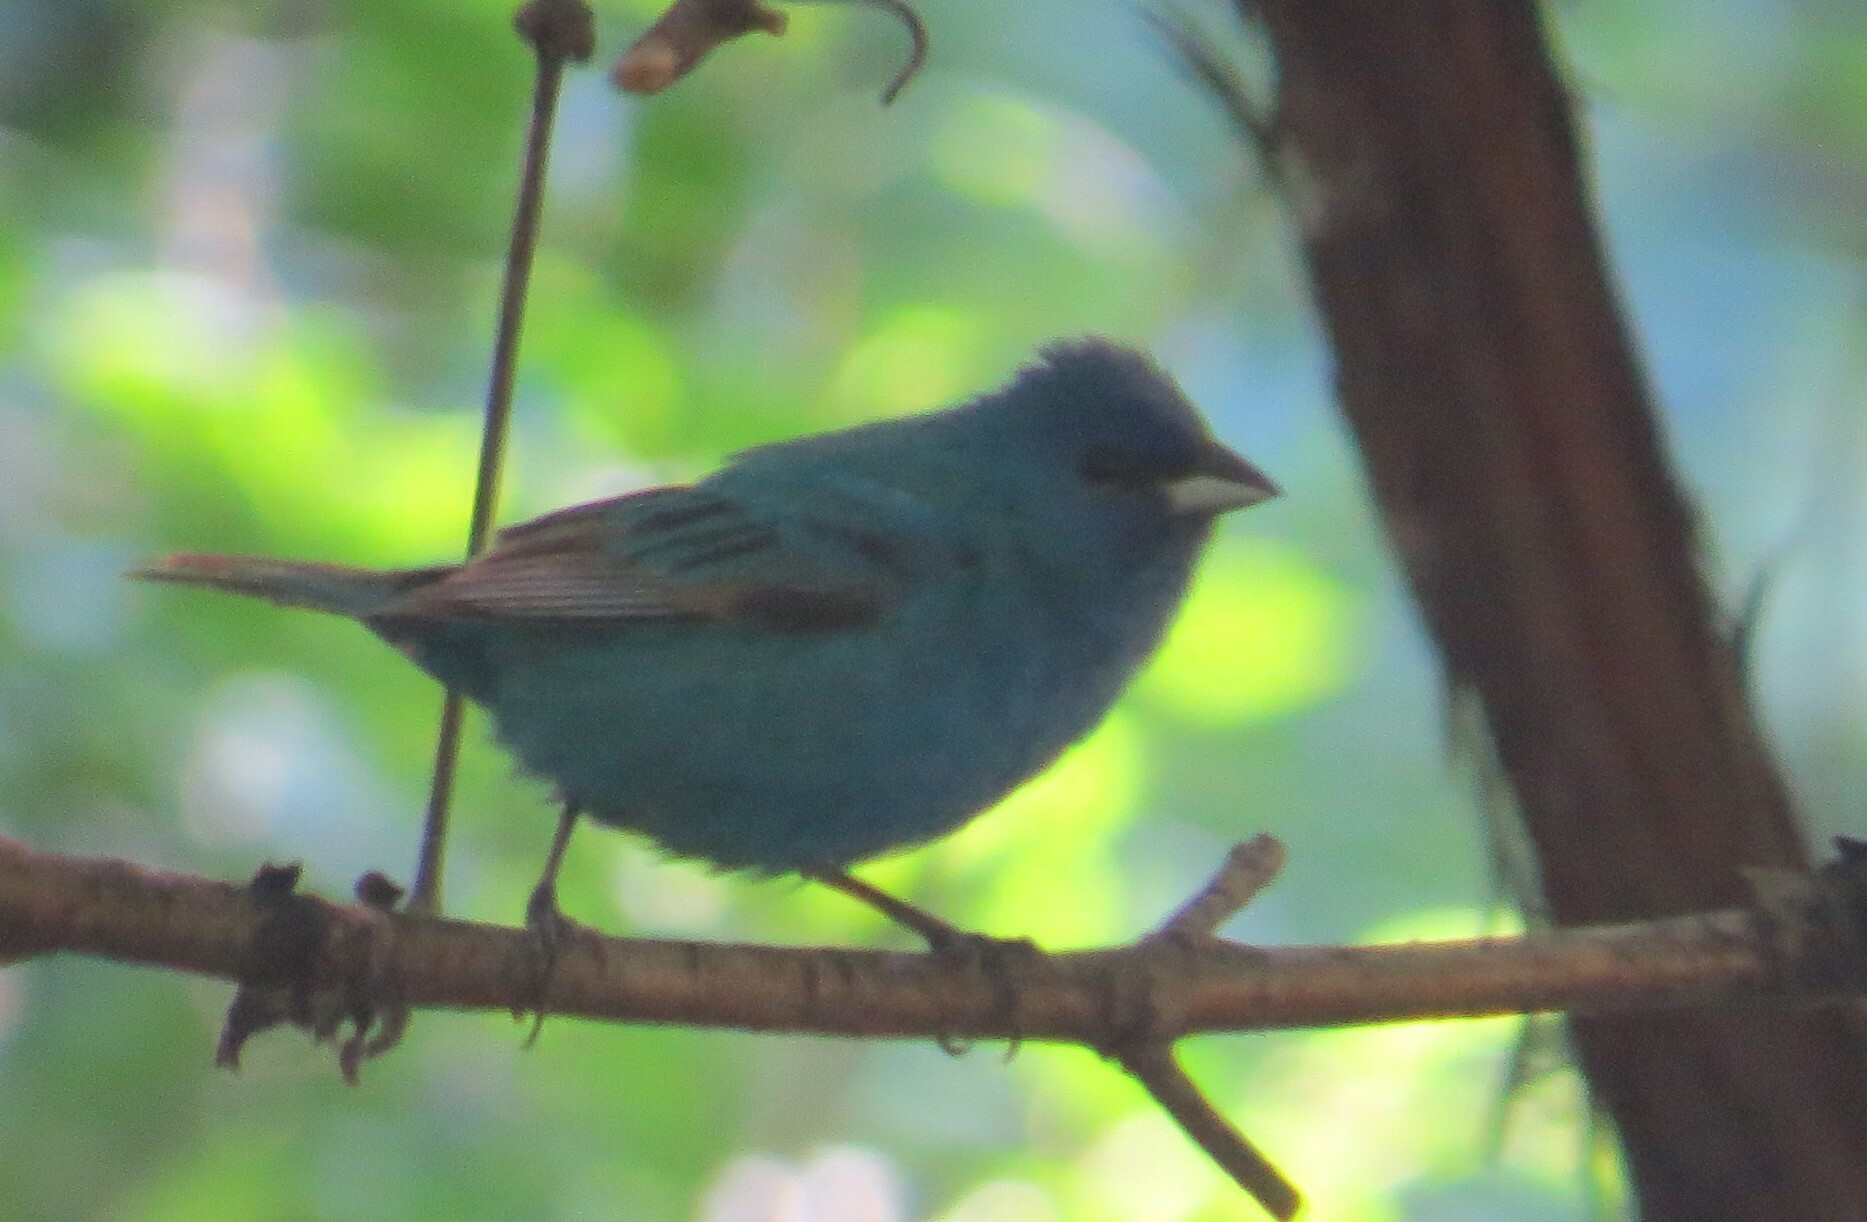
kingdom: Animalia
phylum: Chordata
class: Aves
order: Passeriformes
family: Cardinalidae
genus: Passerina
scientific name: Passerina cyanea
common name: Indigo bunting
